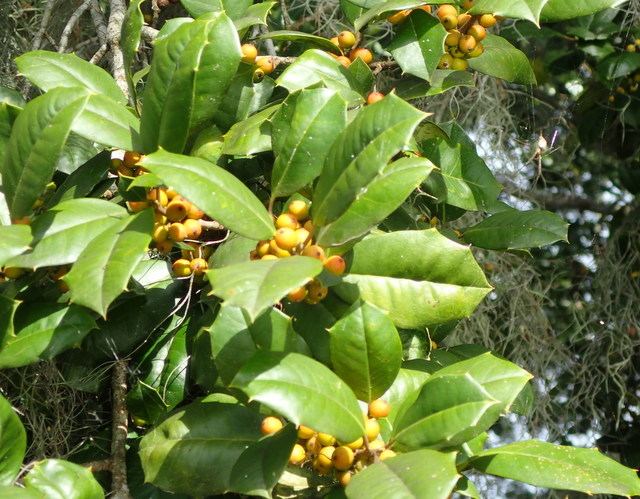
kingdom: Plantae
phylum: Tracheophyta
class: Magnoliopsida
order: Aquifoliales
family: Aquifoliaceae
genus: Ilex
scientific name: Ilex opaca
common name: American holly
